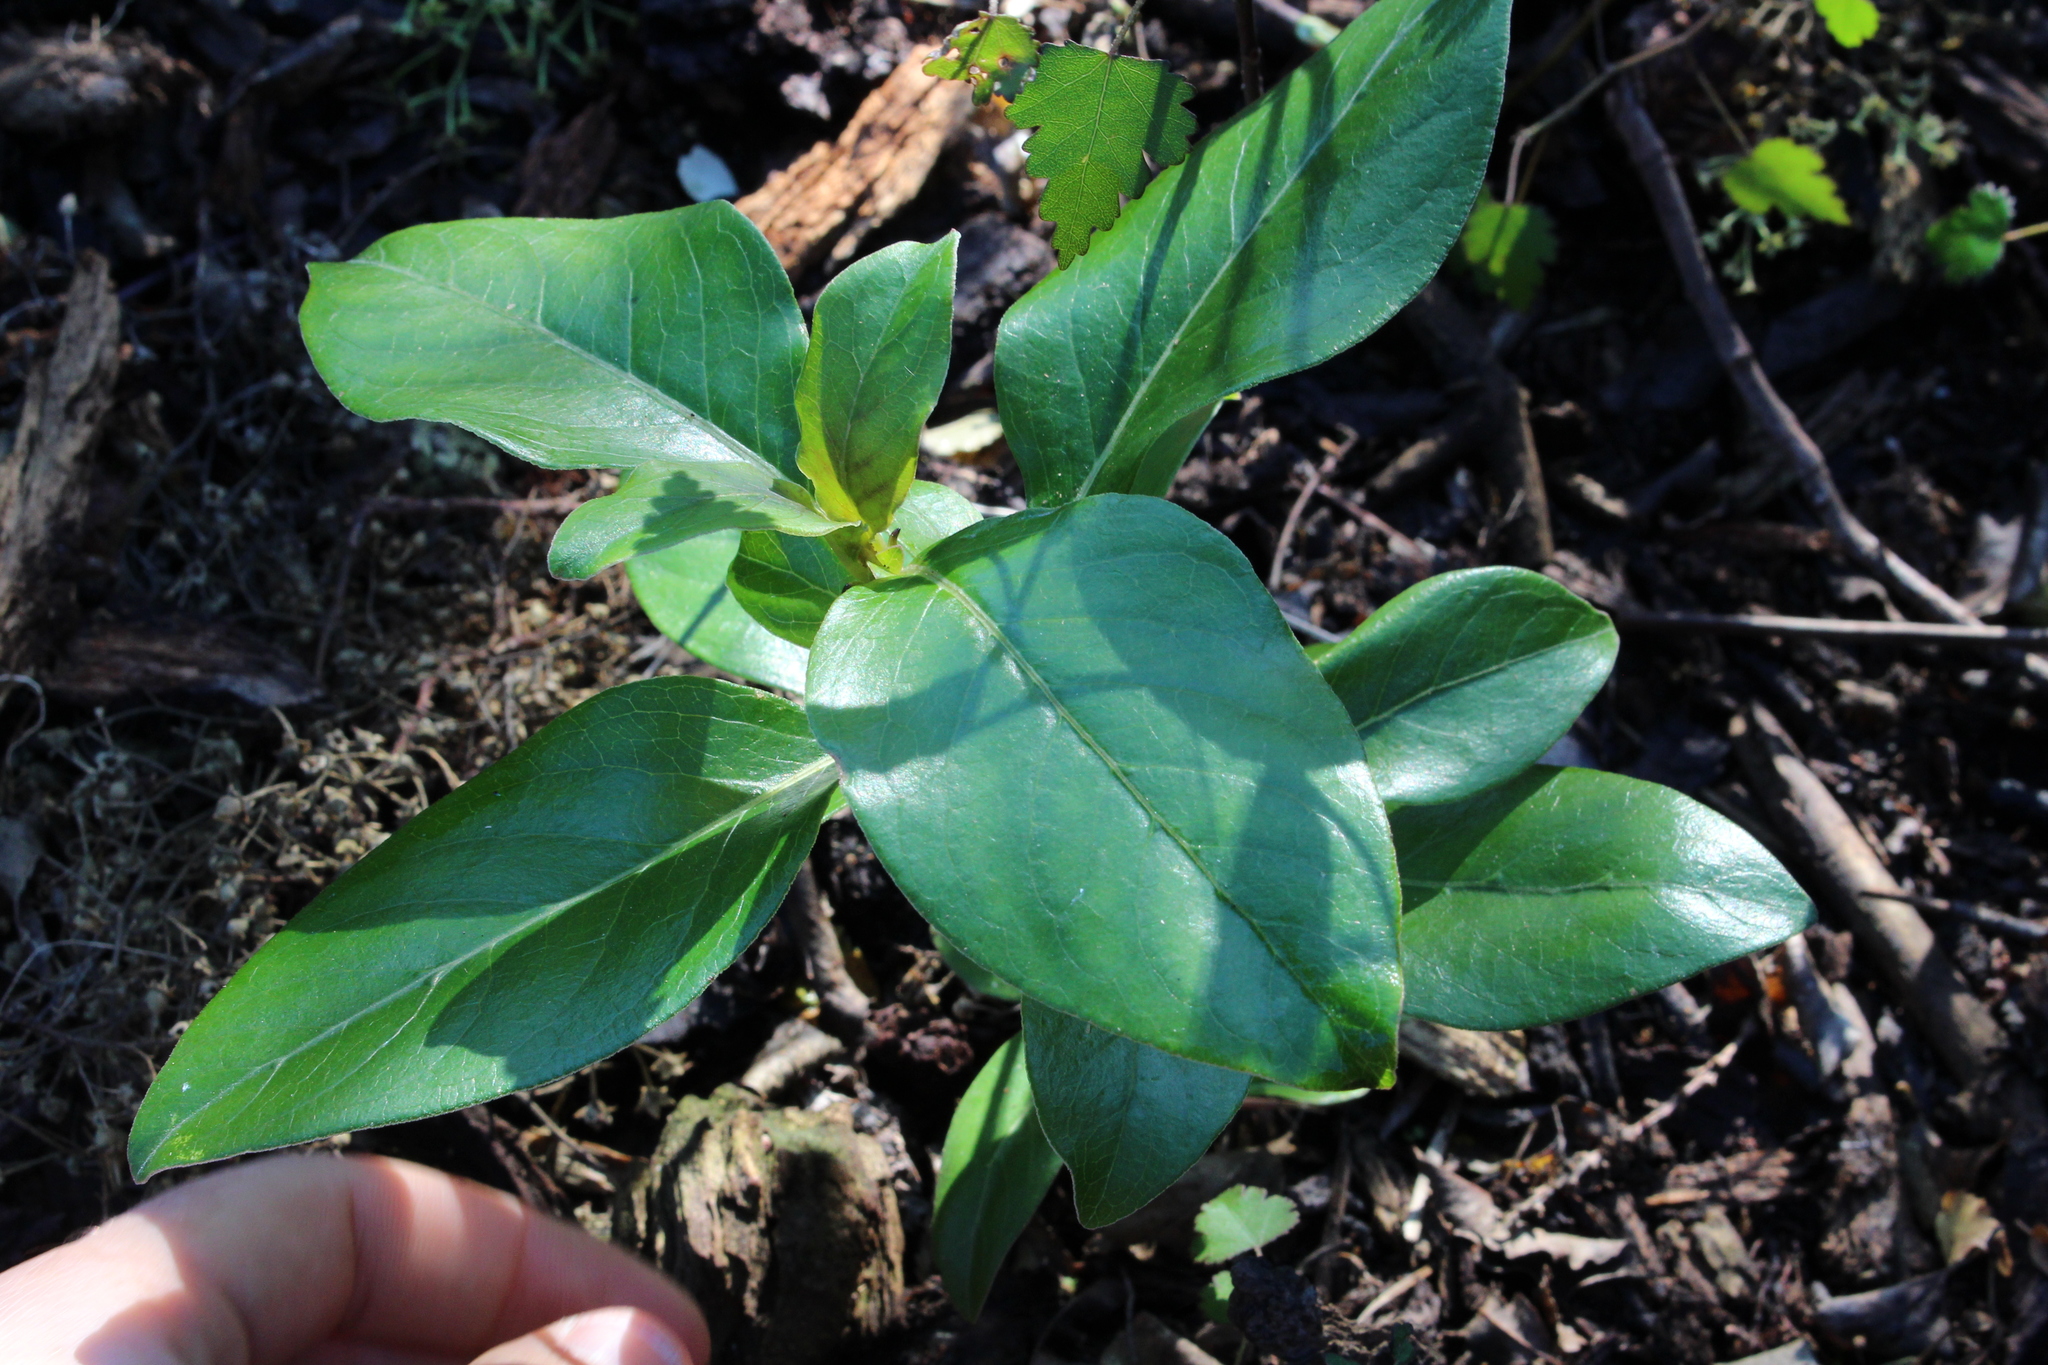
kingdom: Plantae
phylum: Tracheophyta
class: Magnoliopsida
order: Gentianales
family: Rubiaceae
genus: Coprosma
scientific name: Coprosma robusta
